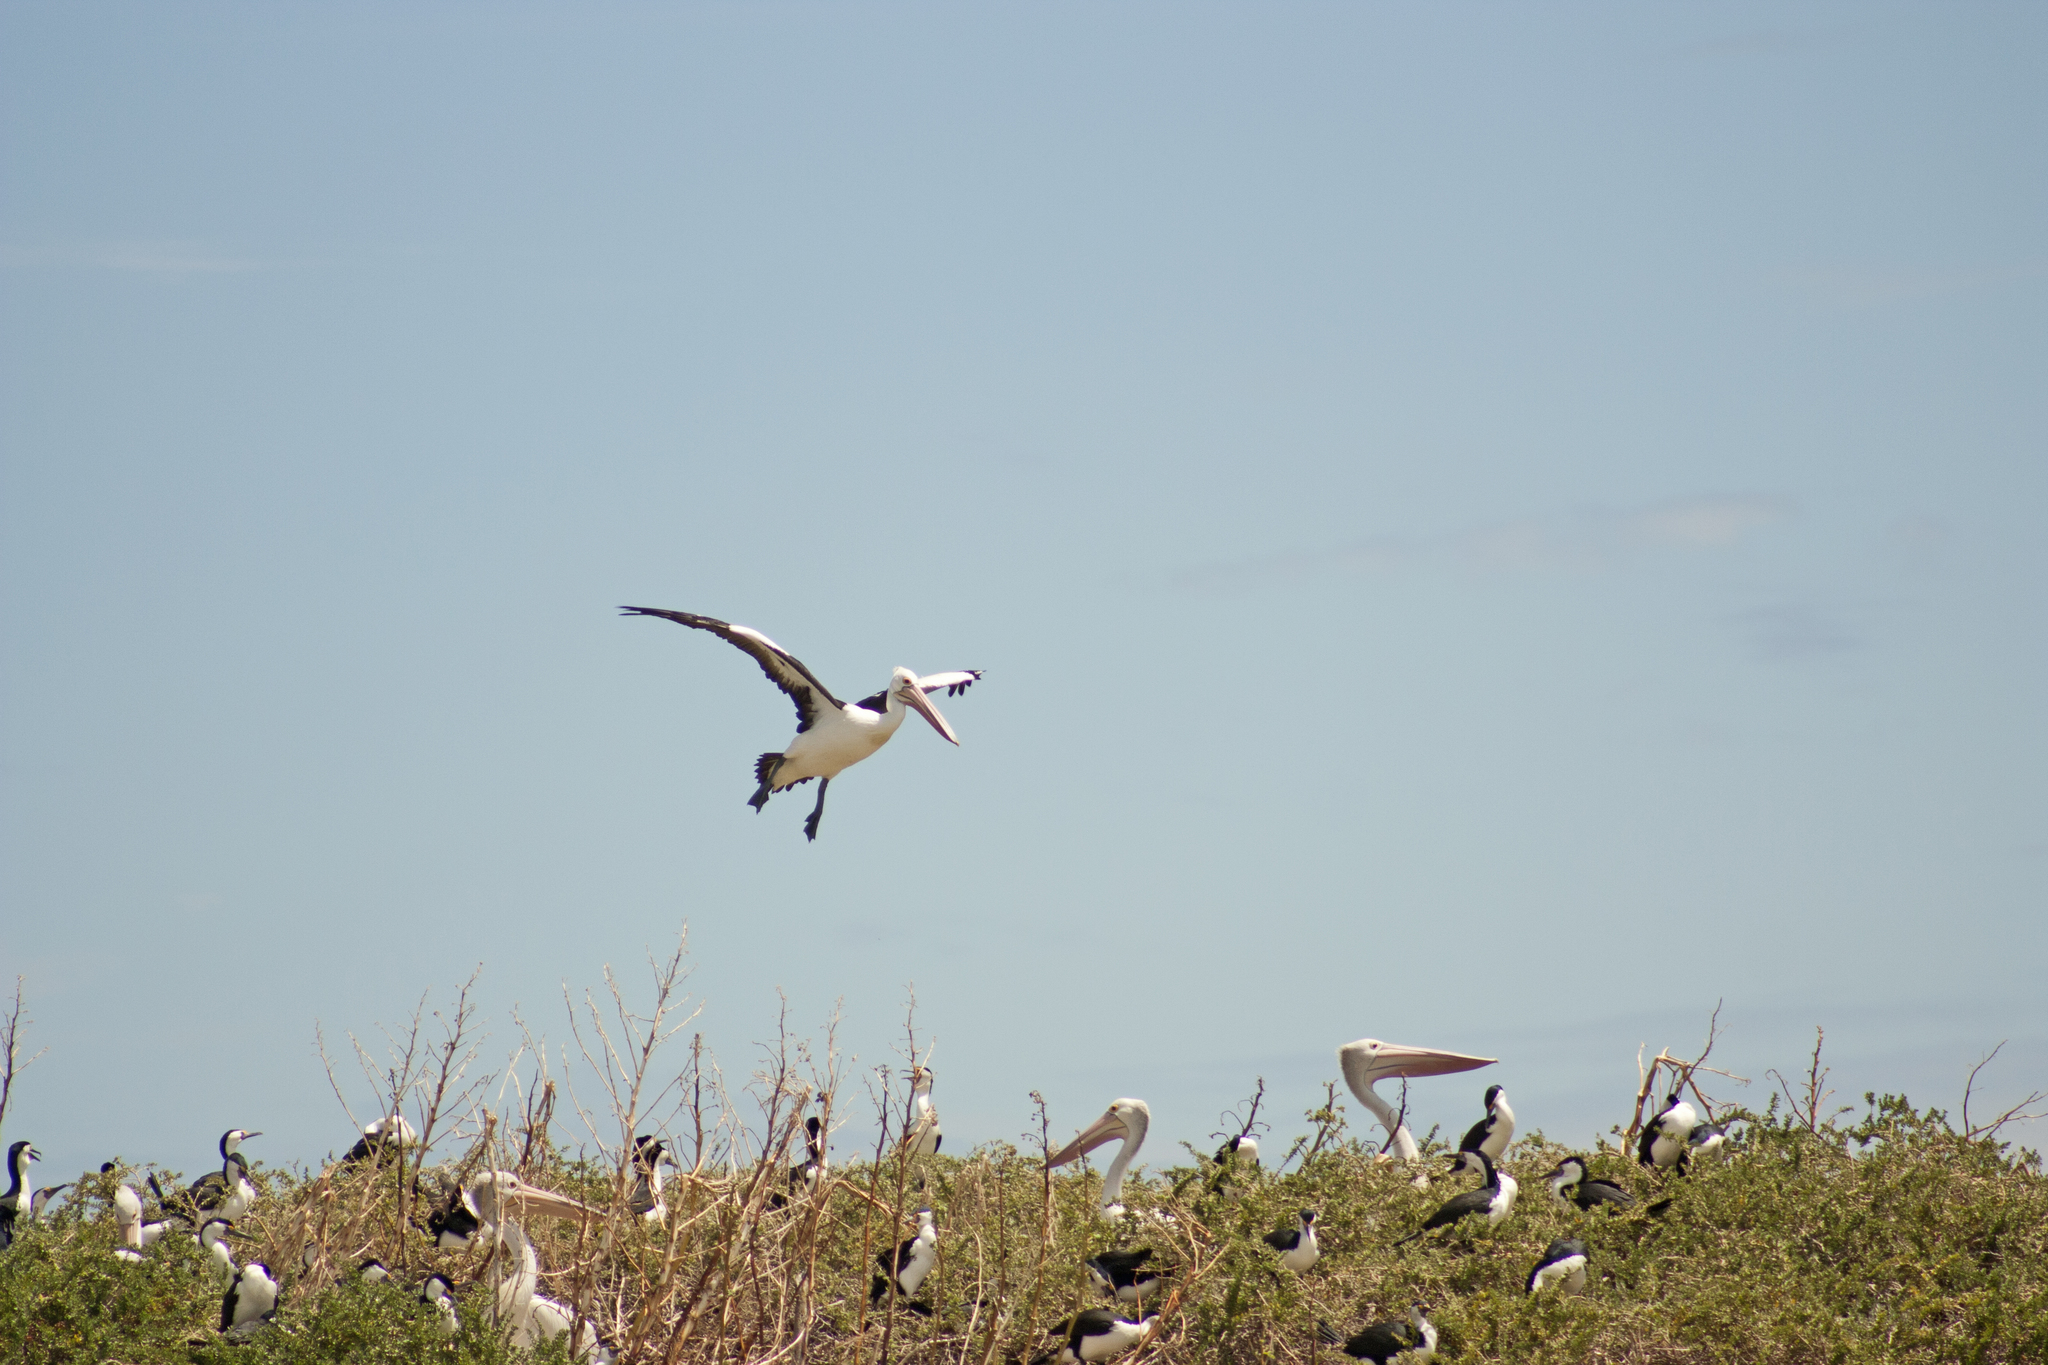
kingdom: Animalia
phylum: Chordata
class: Aves
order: Pelecaniformes
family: Pelecanidae
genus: Pelecanus
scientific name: Pelecanus conspicillatus
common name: Australian pelican
